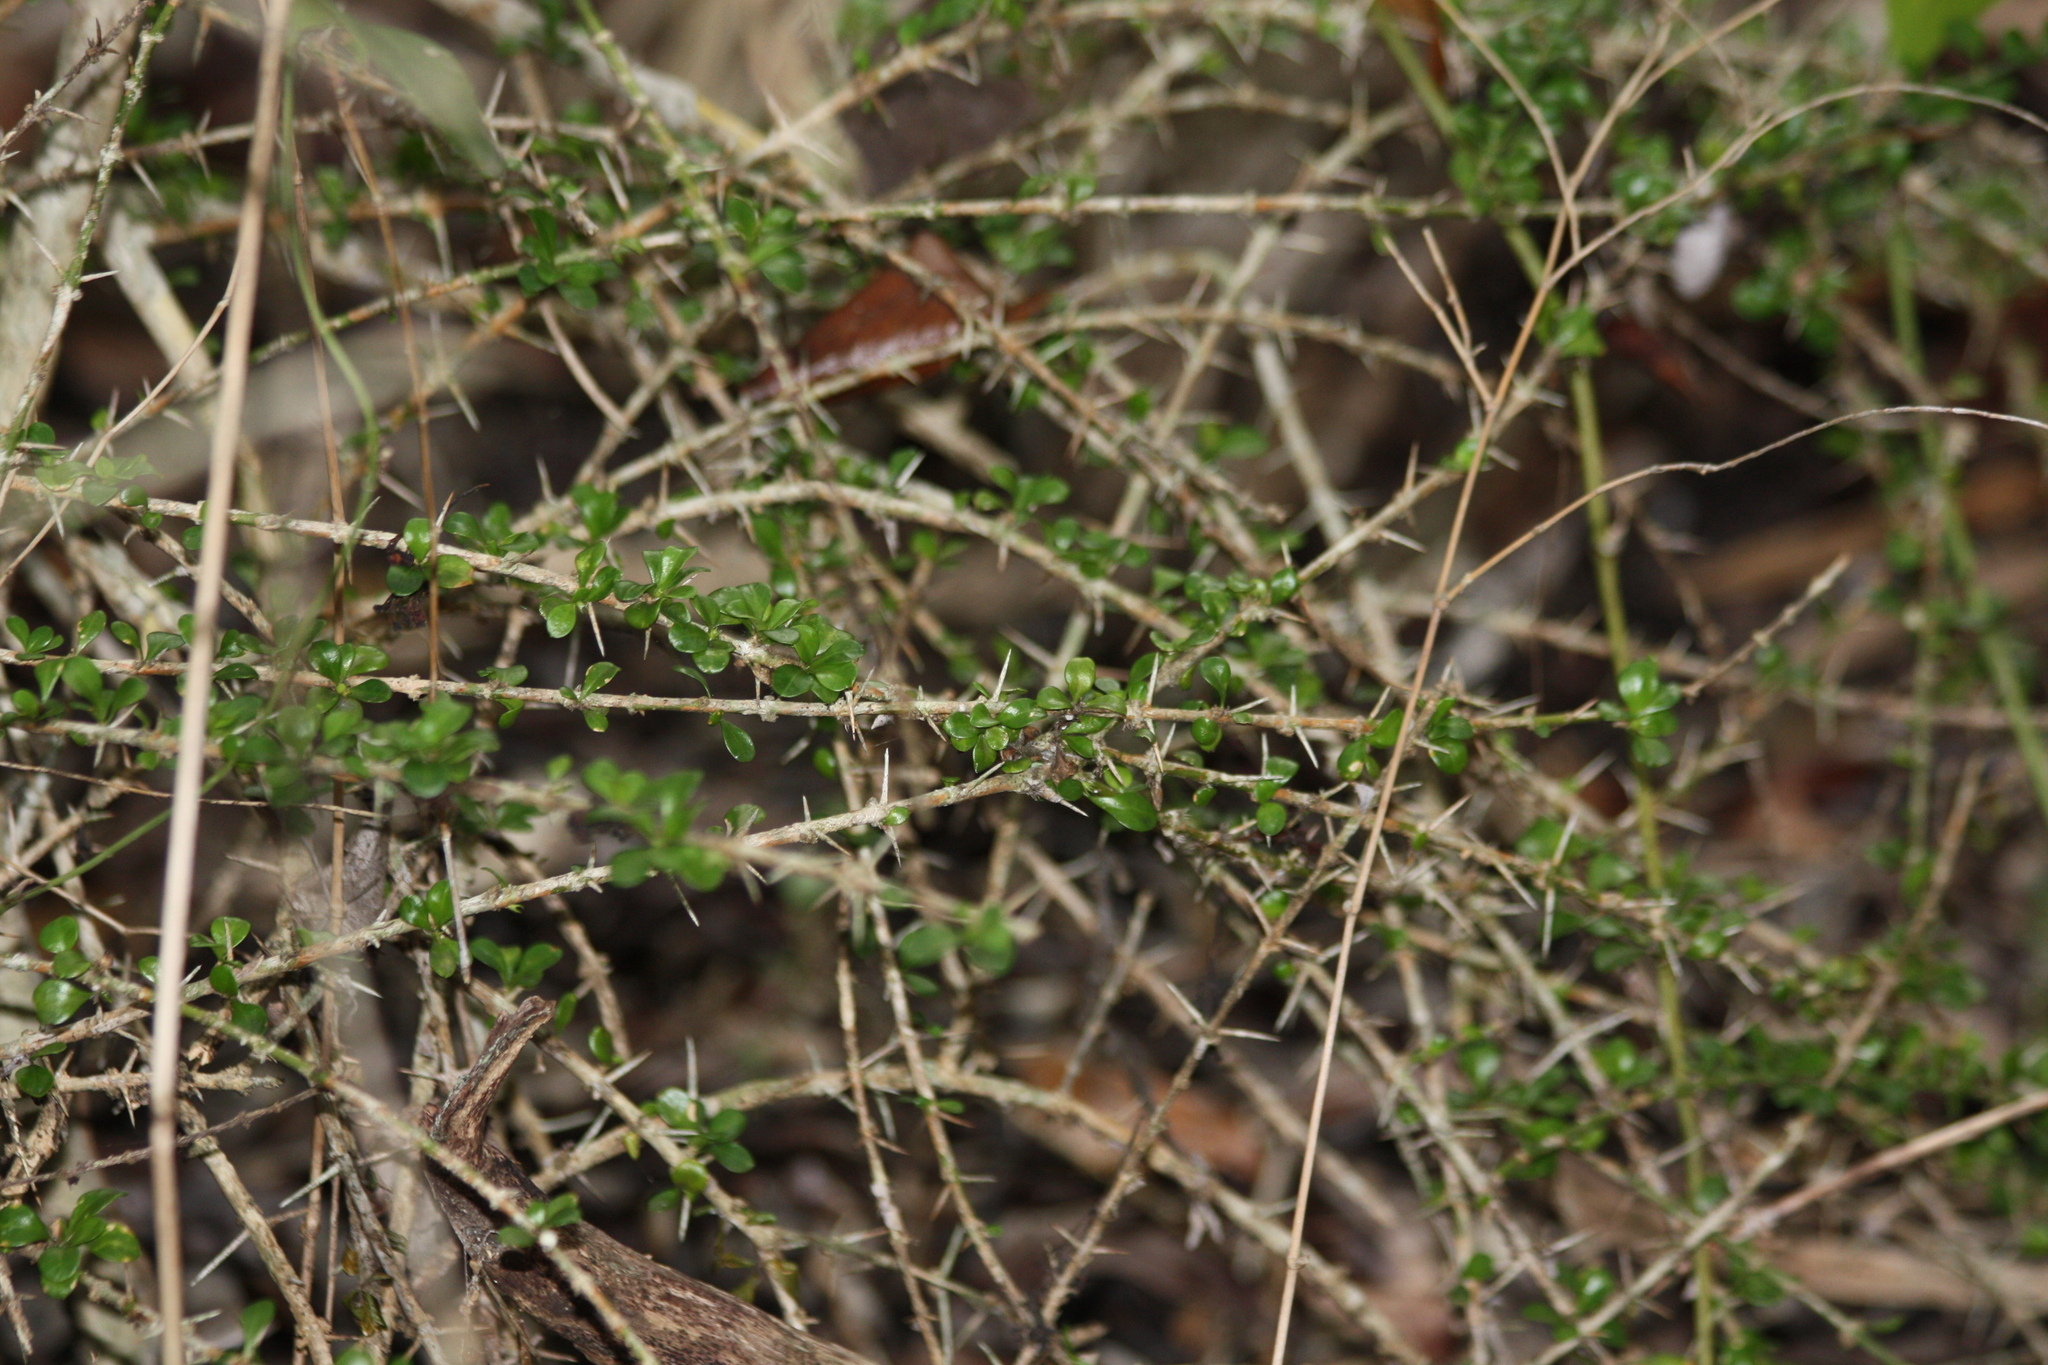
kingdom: Plantae
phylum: Tracheophyta
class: Magnoliopsida
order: Gentianales
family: Rubiaceae
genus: Catesbaea
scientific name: Catesbaea parviflora
